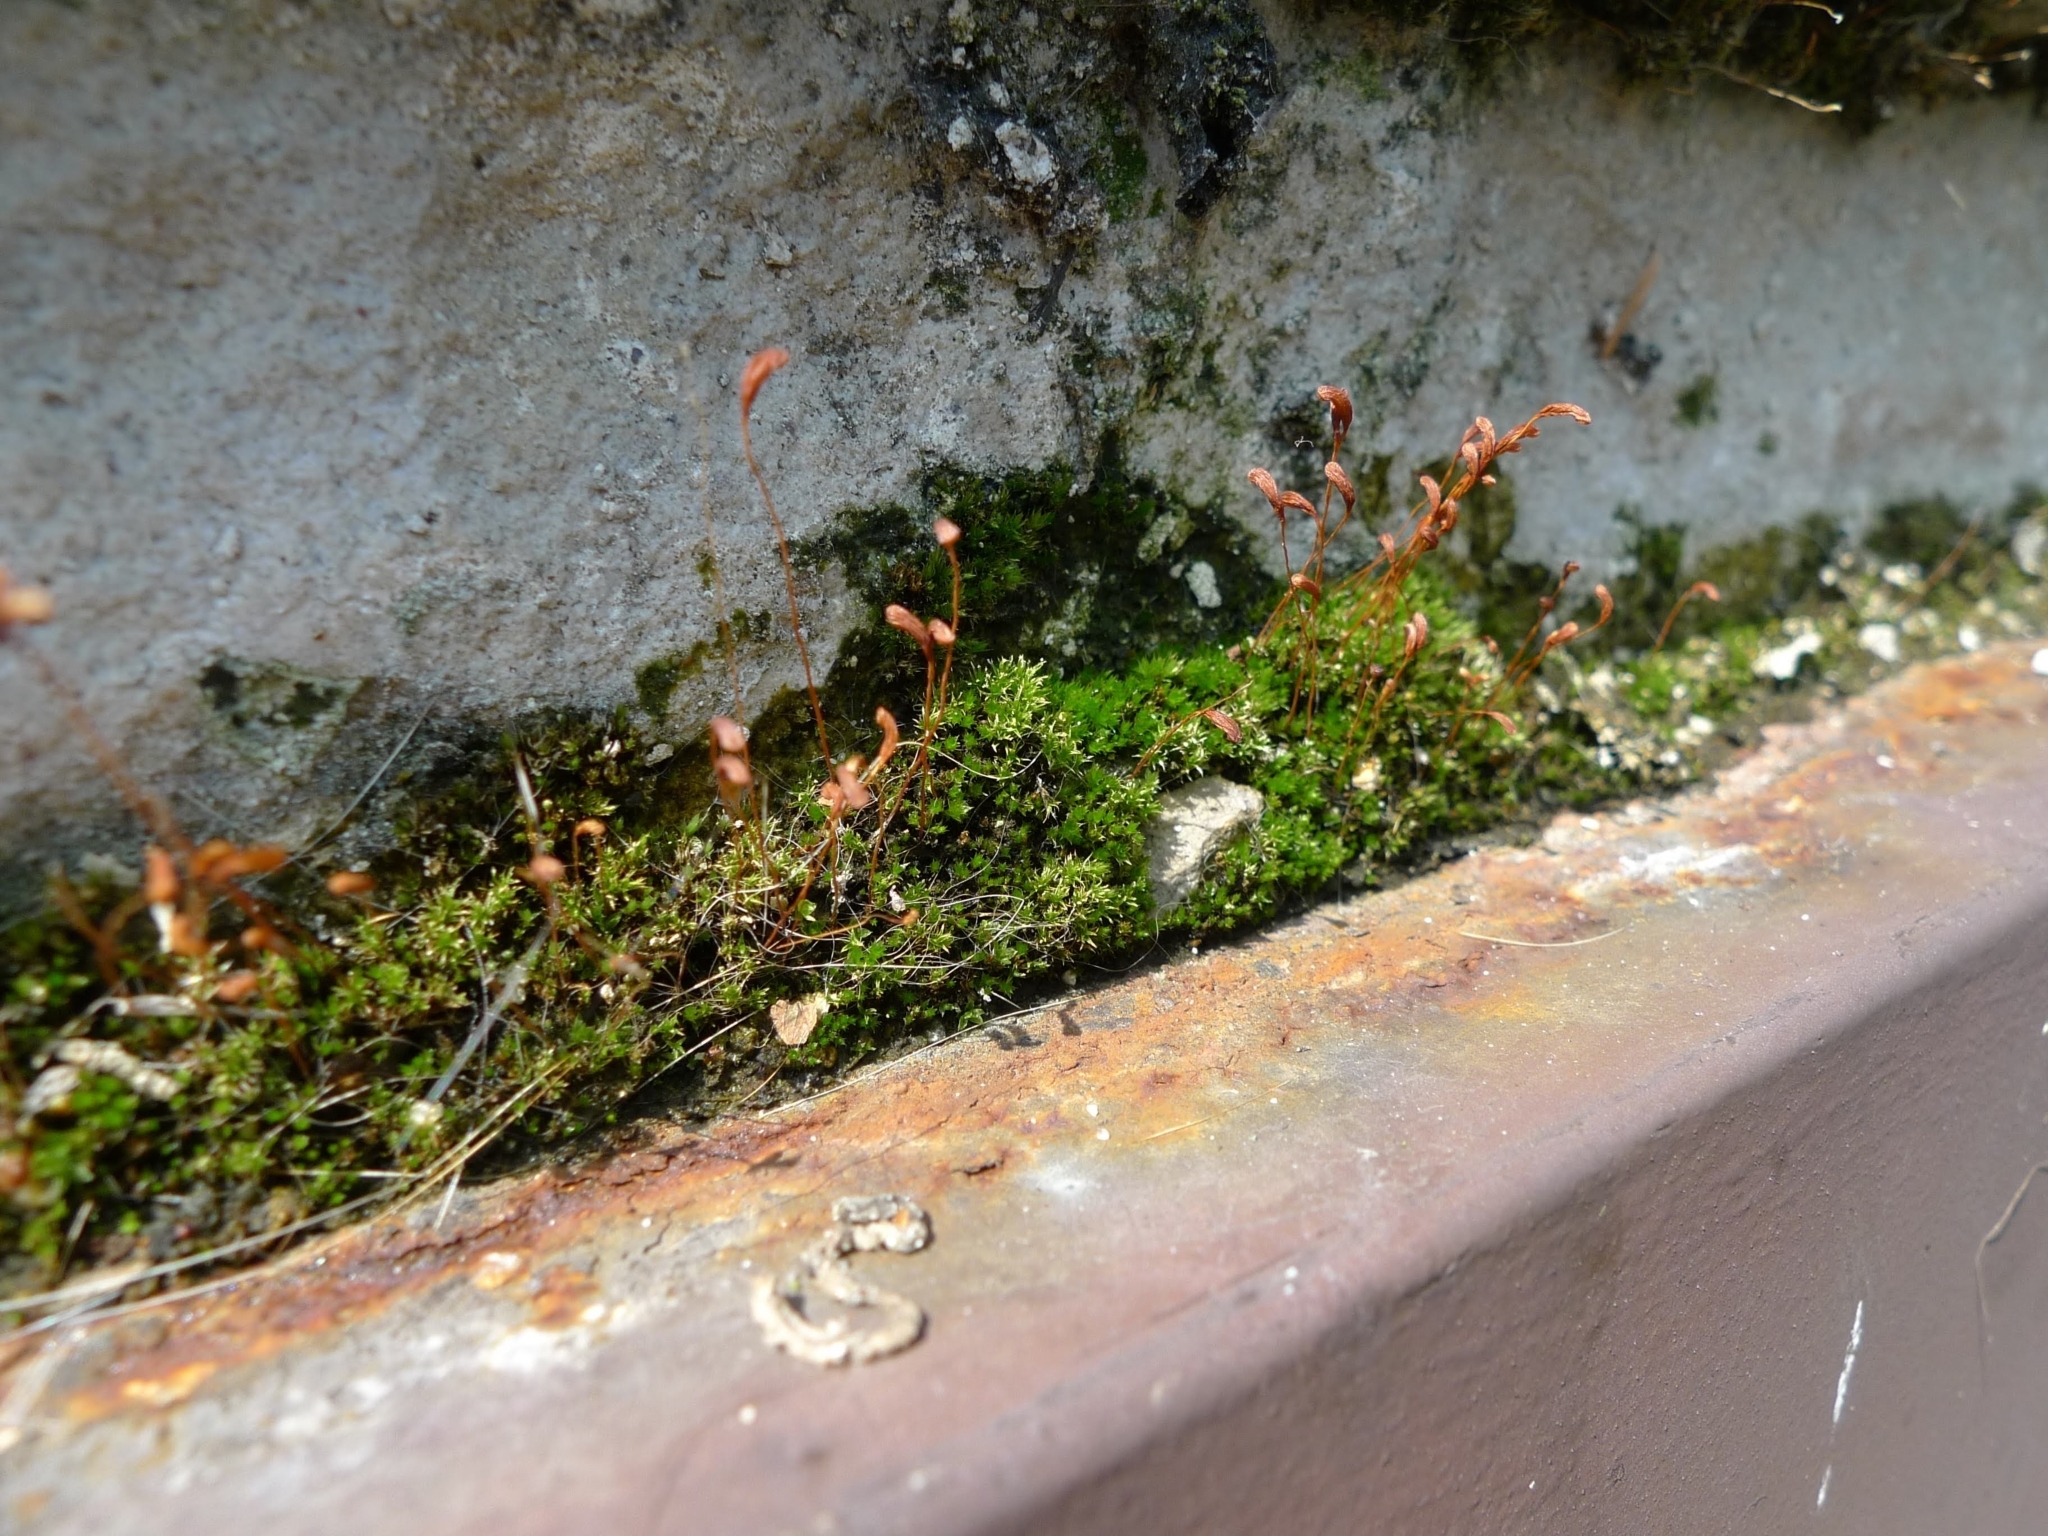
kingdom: Plantae
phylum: Bryophyta
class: Bryopsida
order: Funariales
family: Funariaceae
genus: Funaria
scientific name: Funaria hygrometrica
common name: Common cord moss
